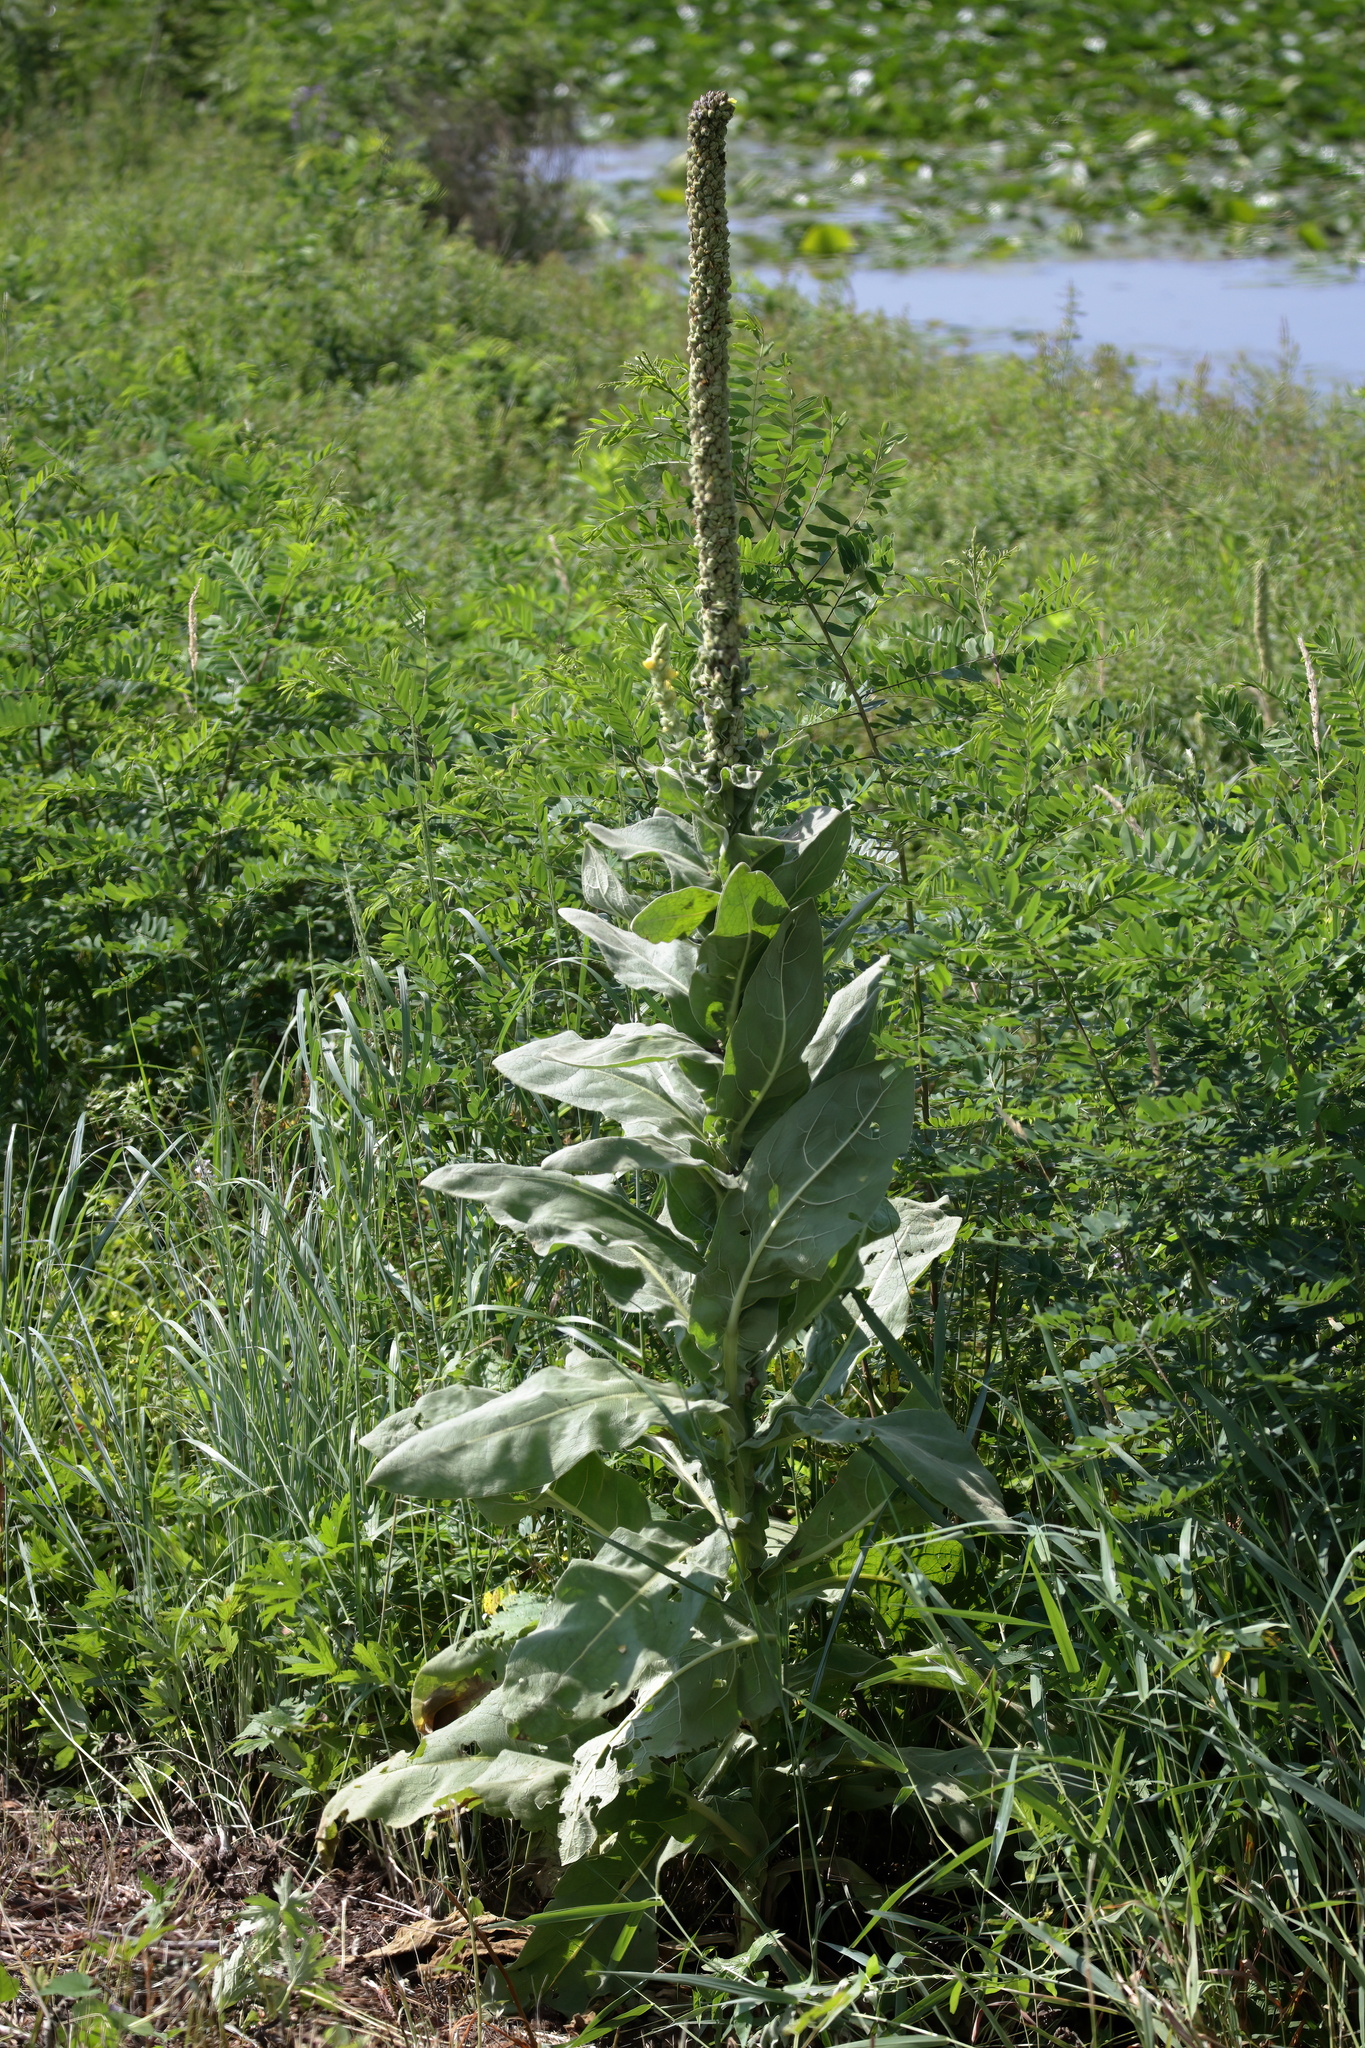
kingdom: Plantae
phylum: Tracheophyta
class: Magnoliopsida
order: Lamiales
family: Scrophulariaceae
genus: Verbascum
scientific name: Verbascum thapsus
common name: Common mullein
